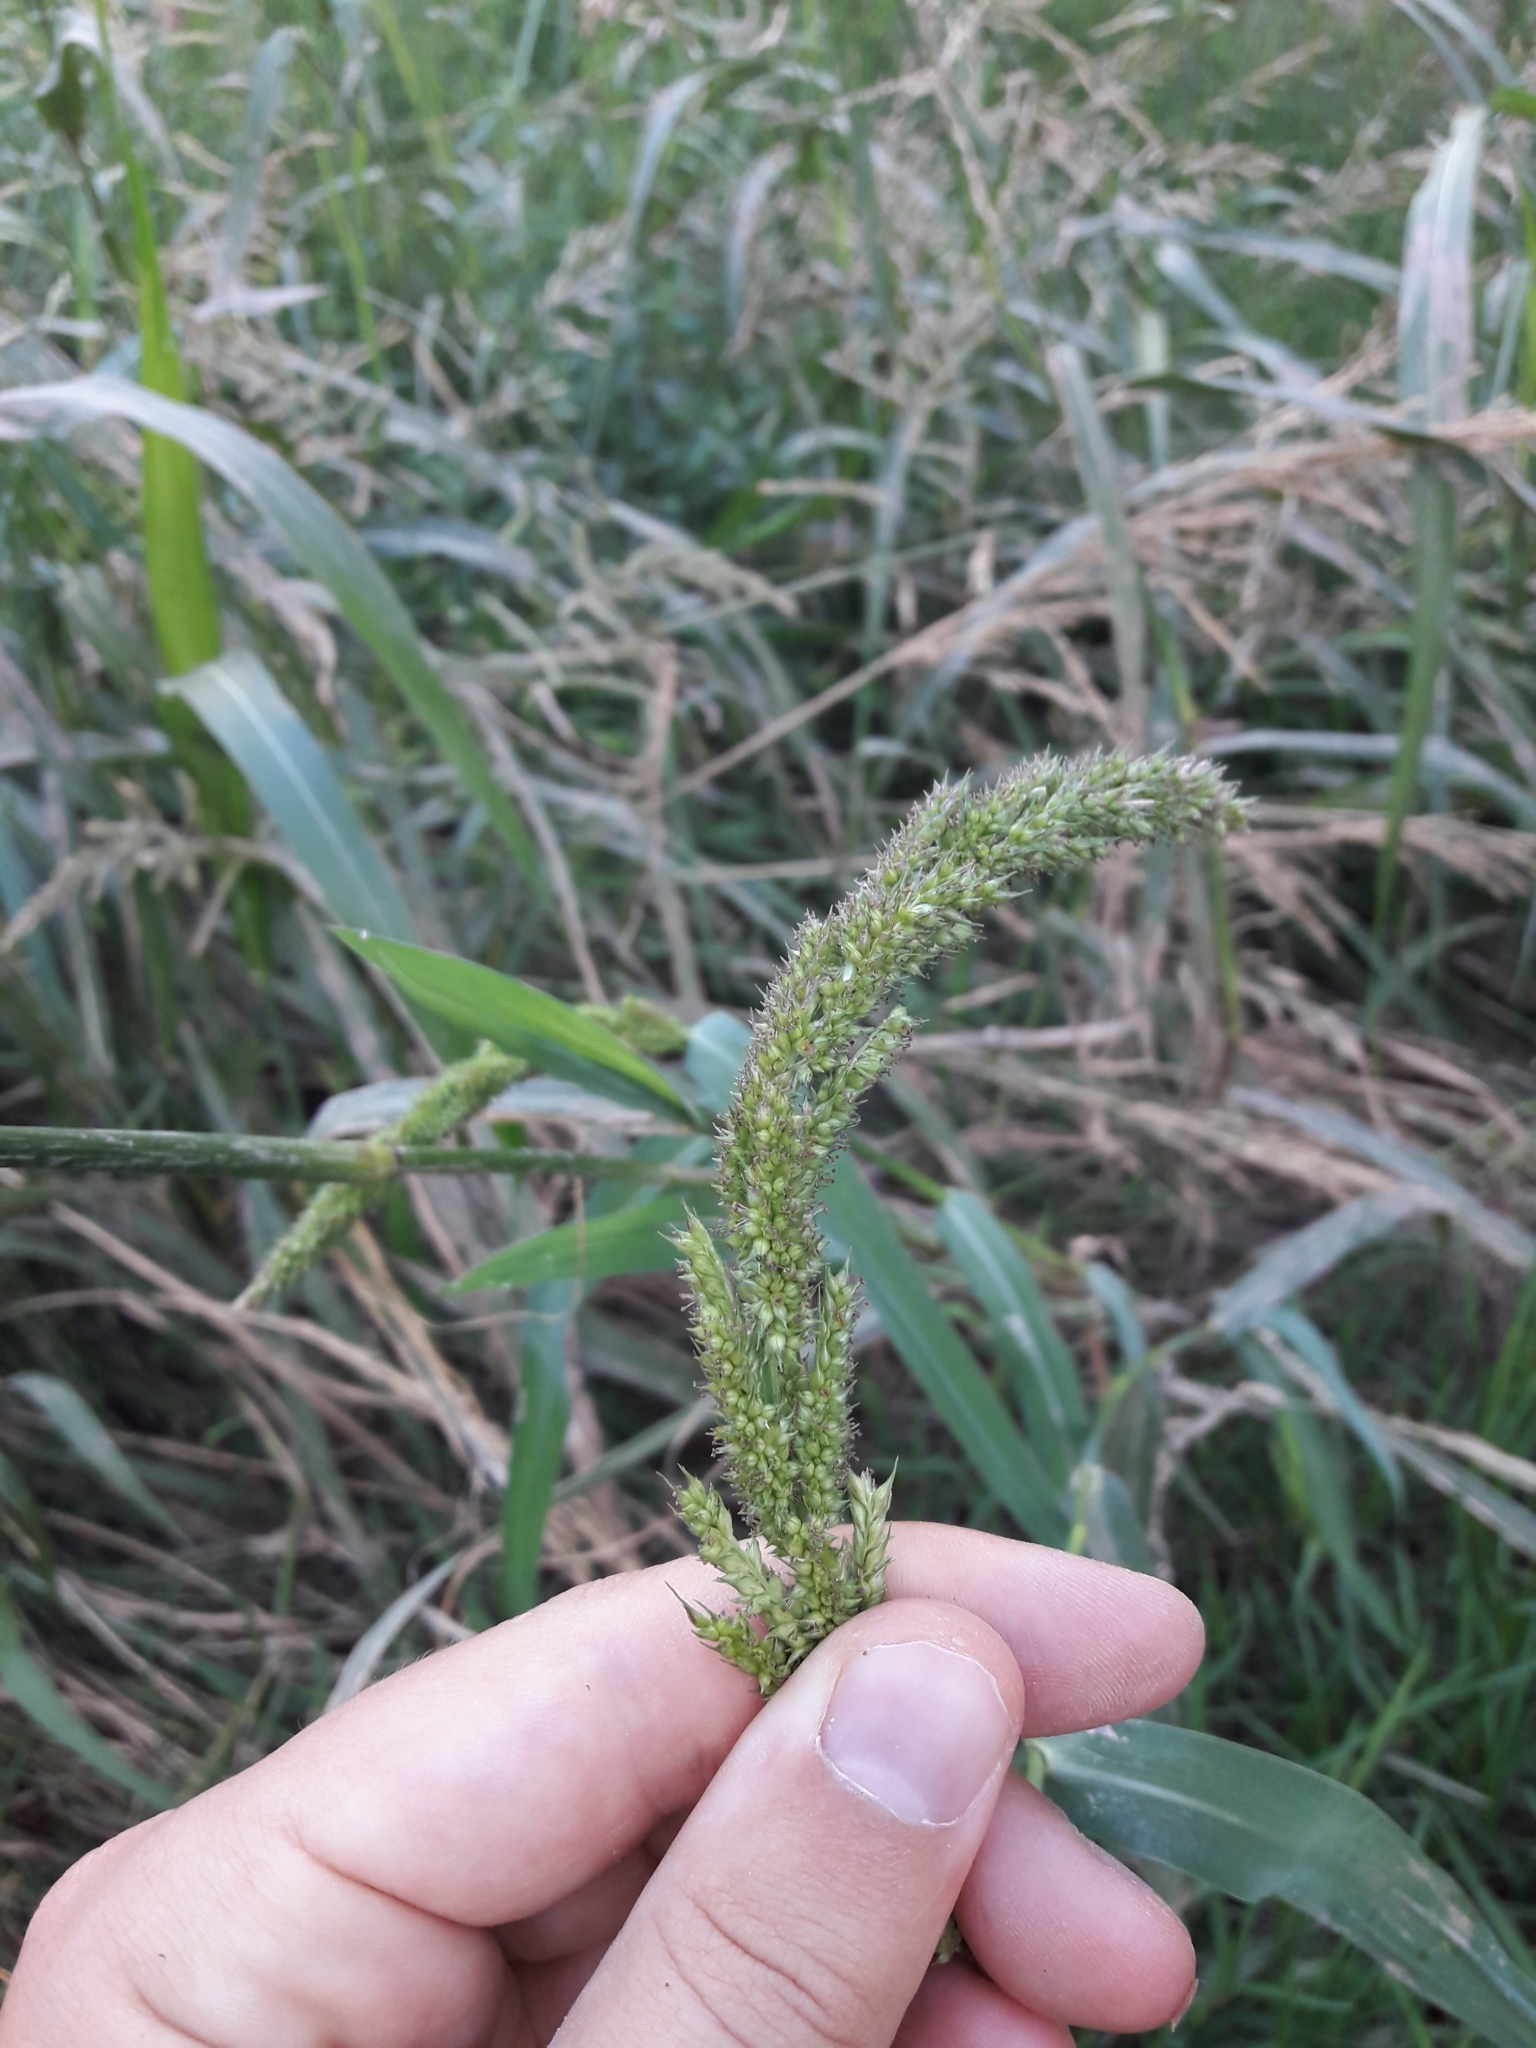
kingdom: Plantae
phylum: Tracheophyta
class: Liliopsida
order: Poales
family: Poaceae
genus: Echinochloa
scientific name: Echinochloa crus-galli
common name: Cockspur
